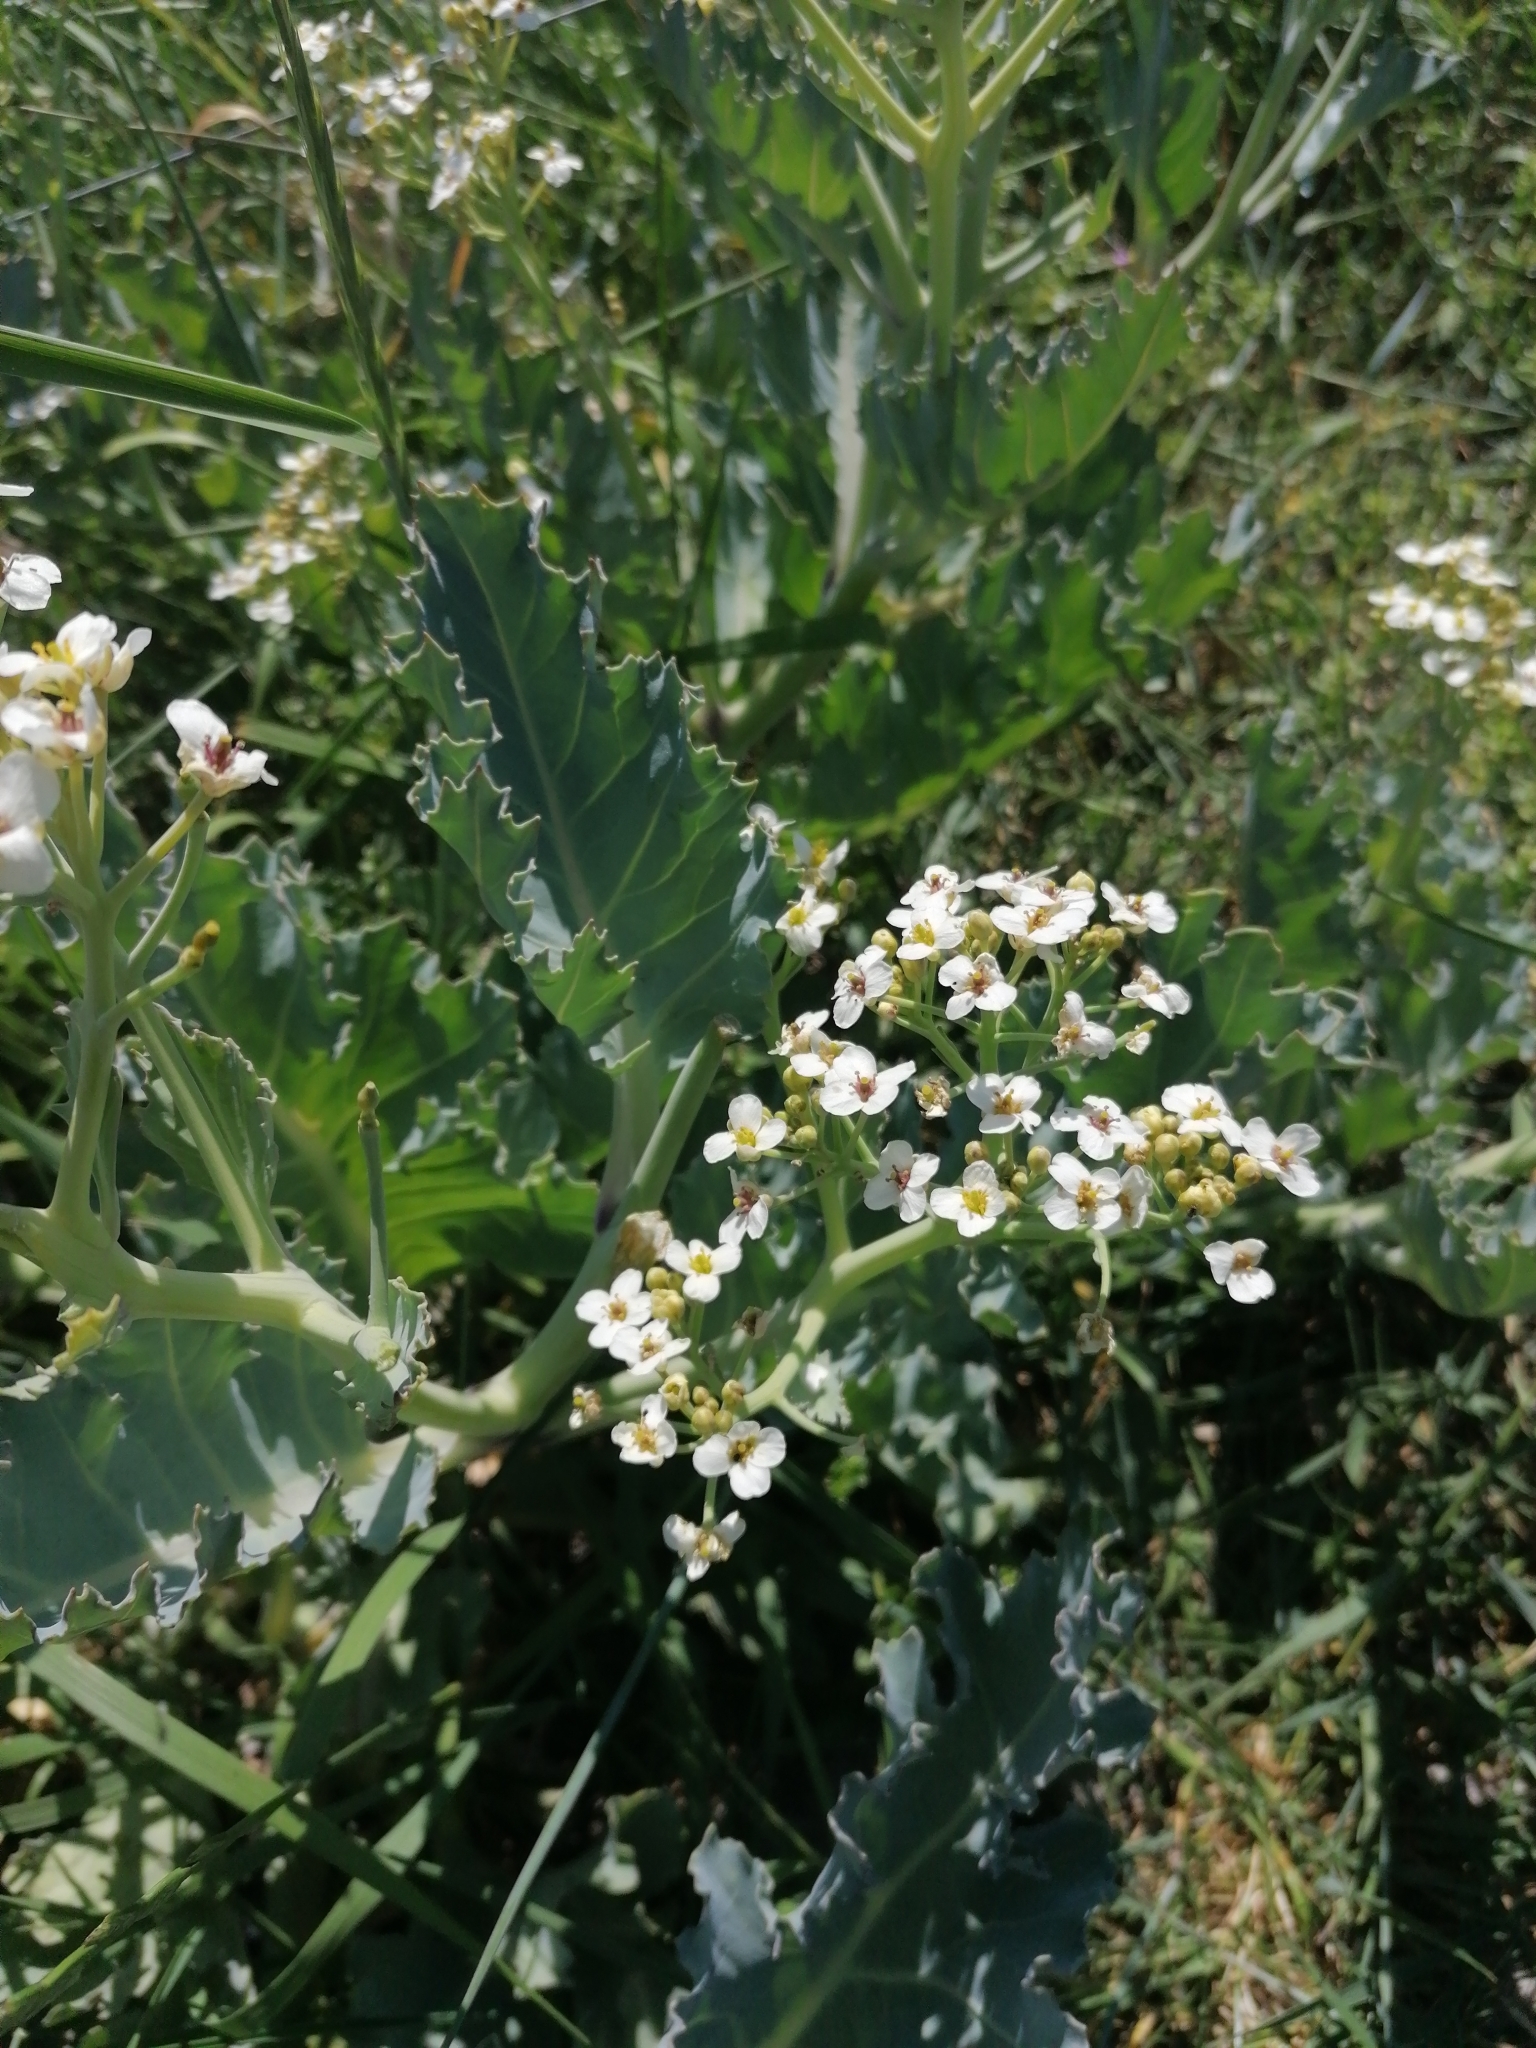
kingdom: Plantae
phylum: Tracheophyta
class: Magnoliopsida
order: Brassicales
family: Brassicaceae
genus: Crambe
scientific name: Crambe maritima
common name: Sea-kale
